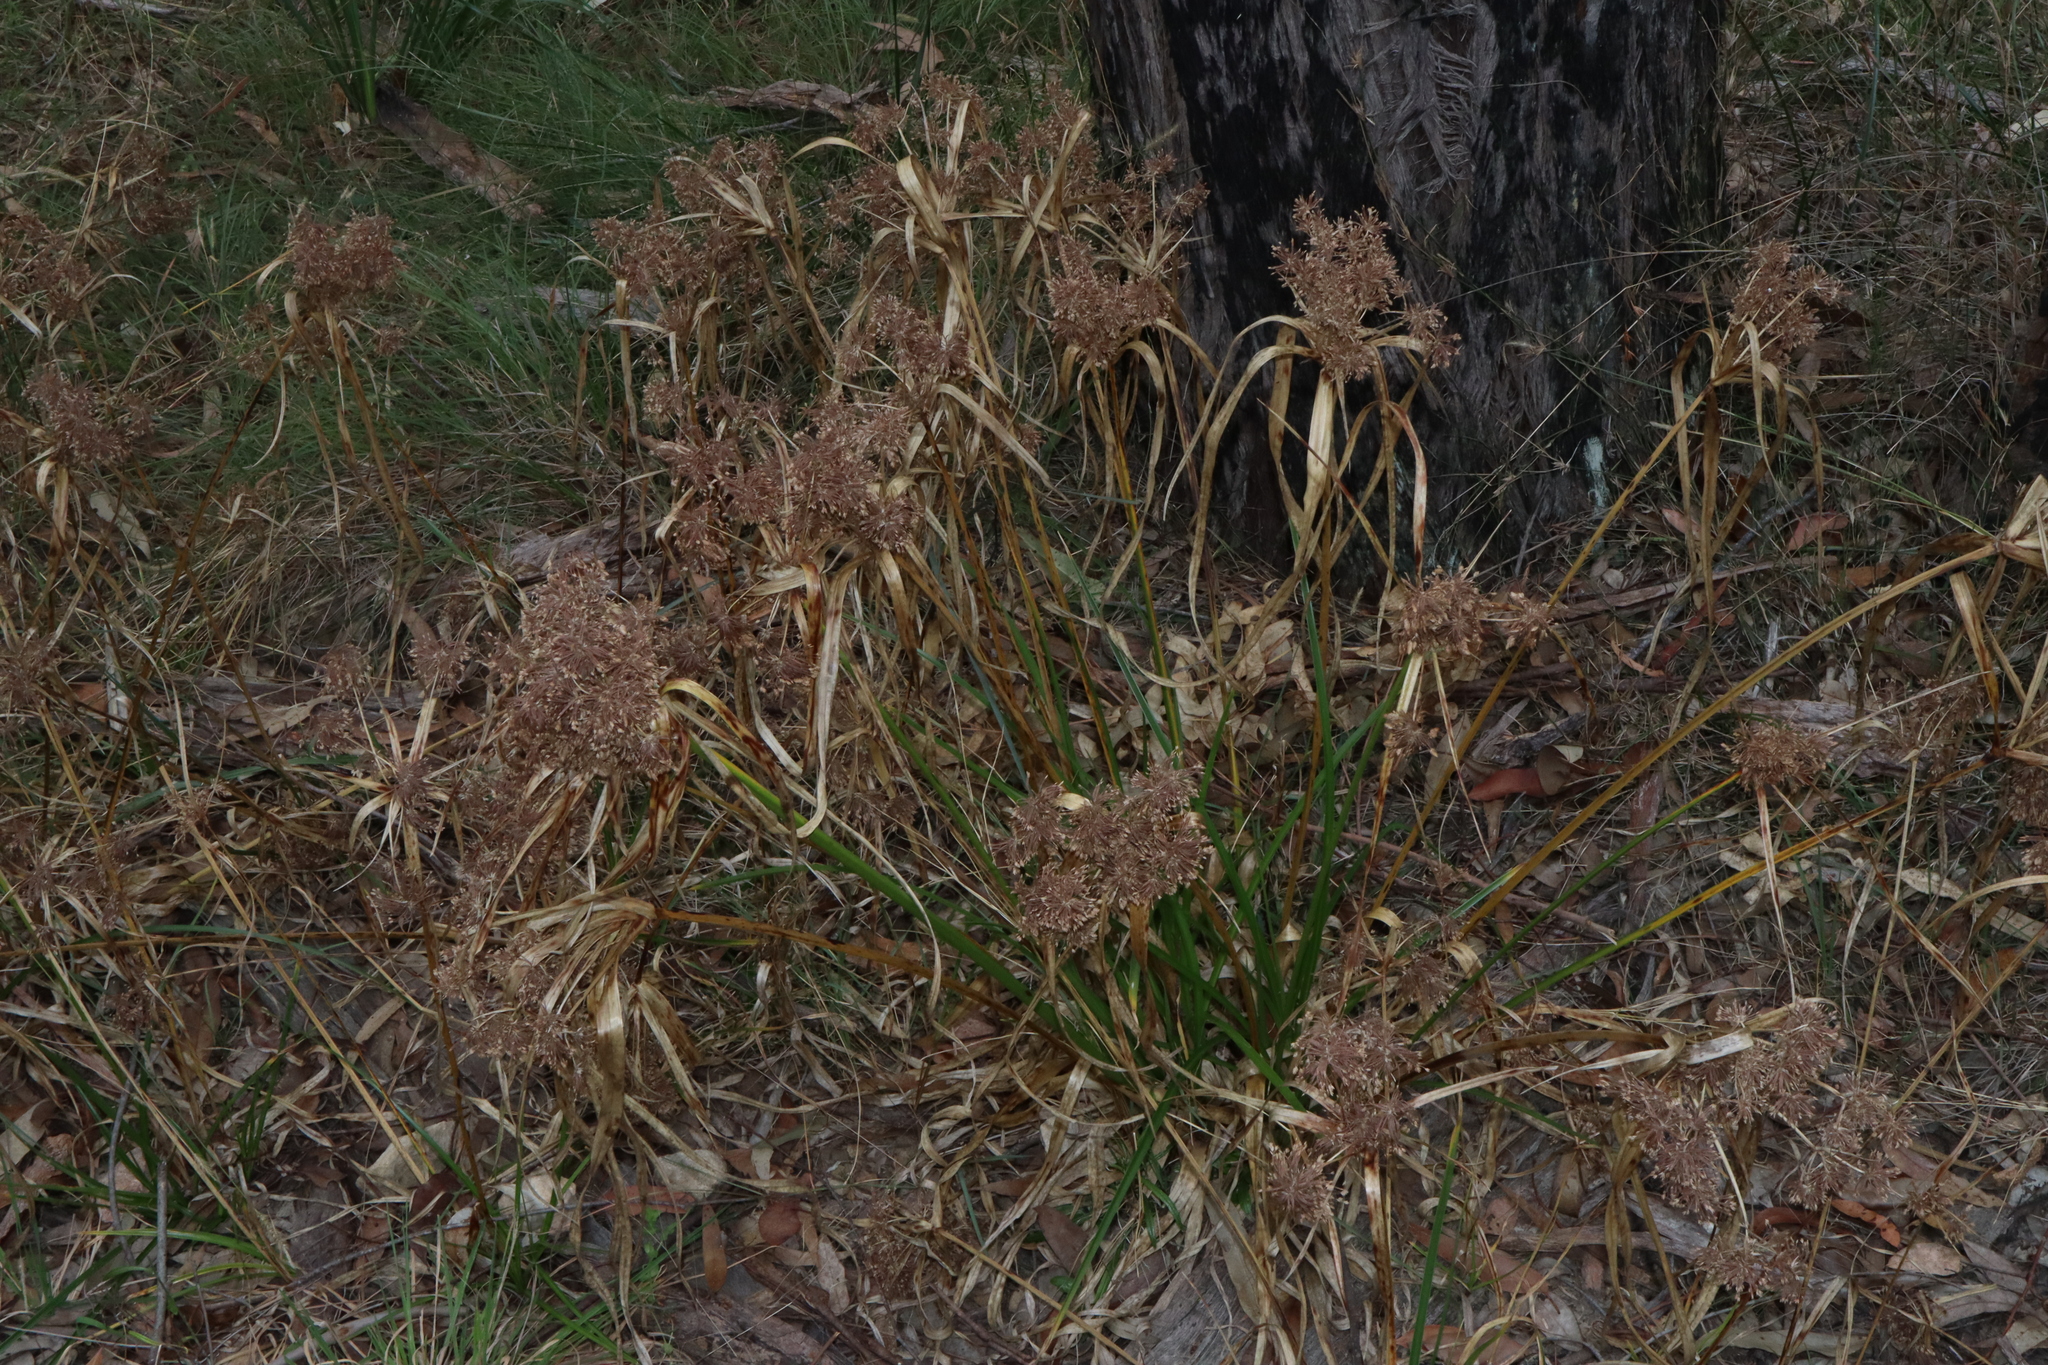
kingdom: Plantae
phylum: Tracheophyta
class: Liliopsida
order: Poales
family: Cyperaceae
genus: Cyperus
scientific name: Cyperus eragrostis
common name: Tall flatsedge
